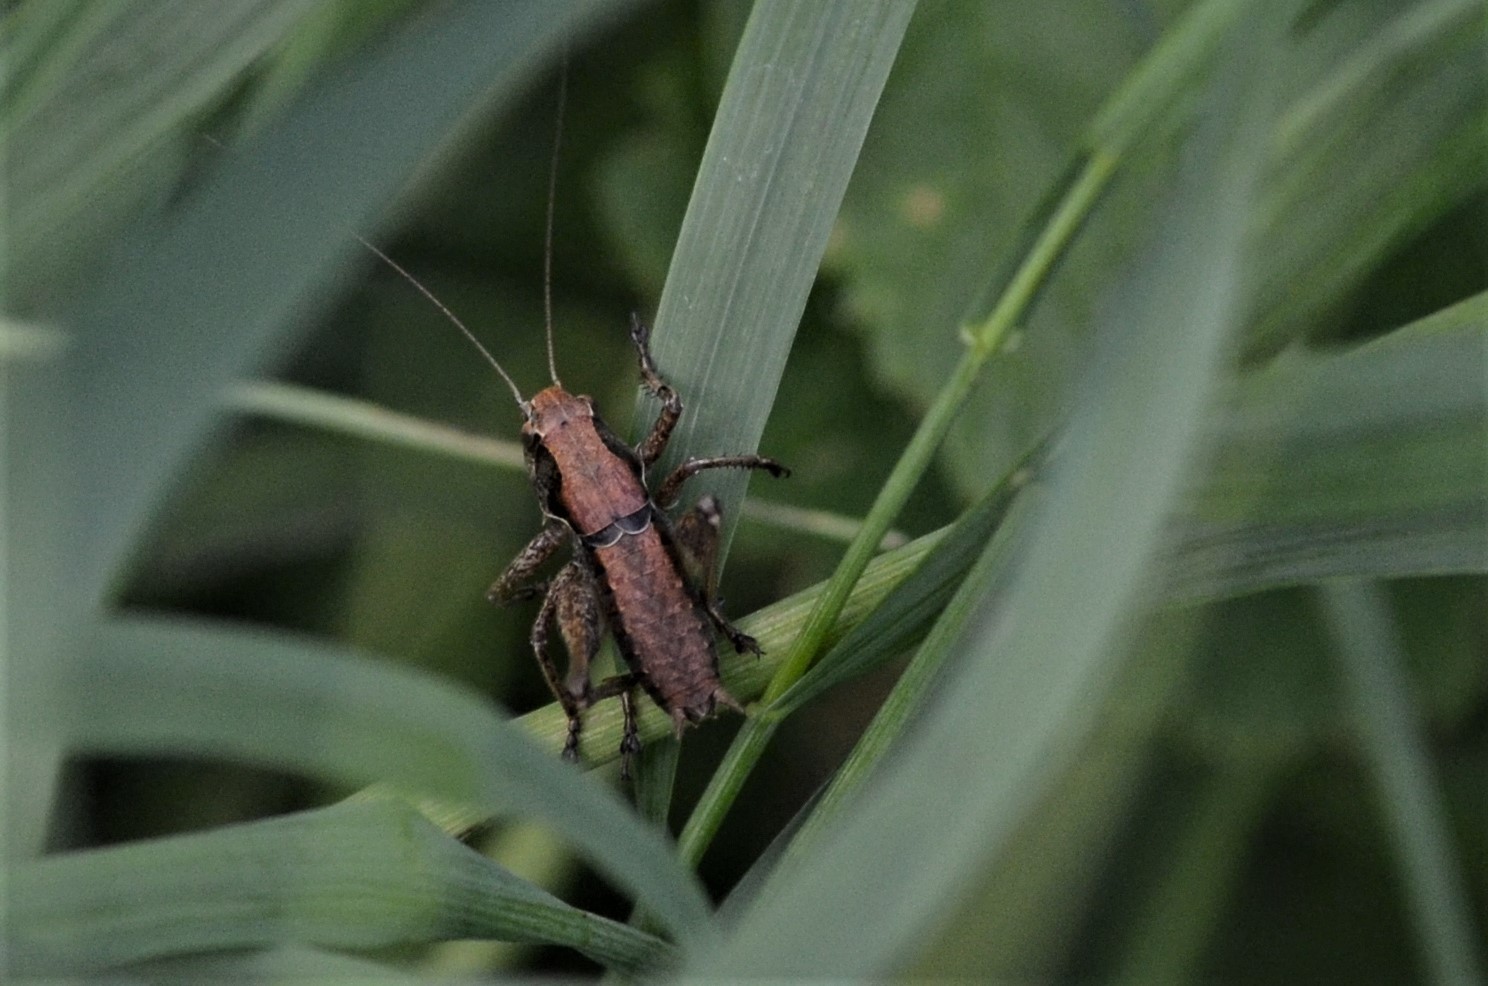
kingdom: Animalia
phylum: Arthropoda
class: Insecta
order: Orthoptera
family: Tettigoniidae
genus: Pholidoptera
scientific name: Pholidoptera griseoaptera
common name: Dark bush-cricket
